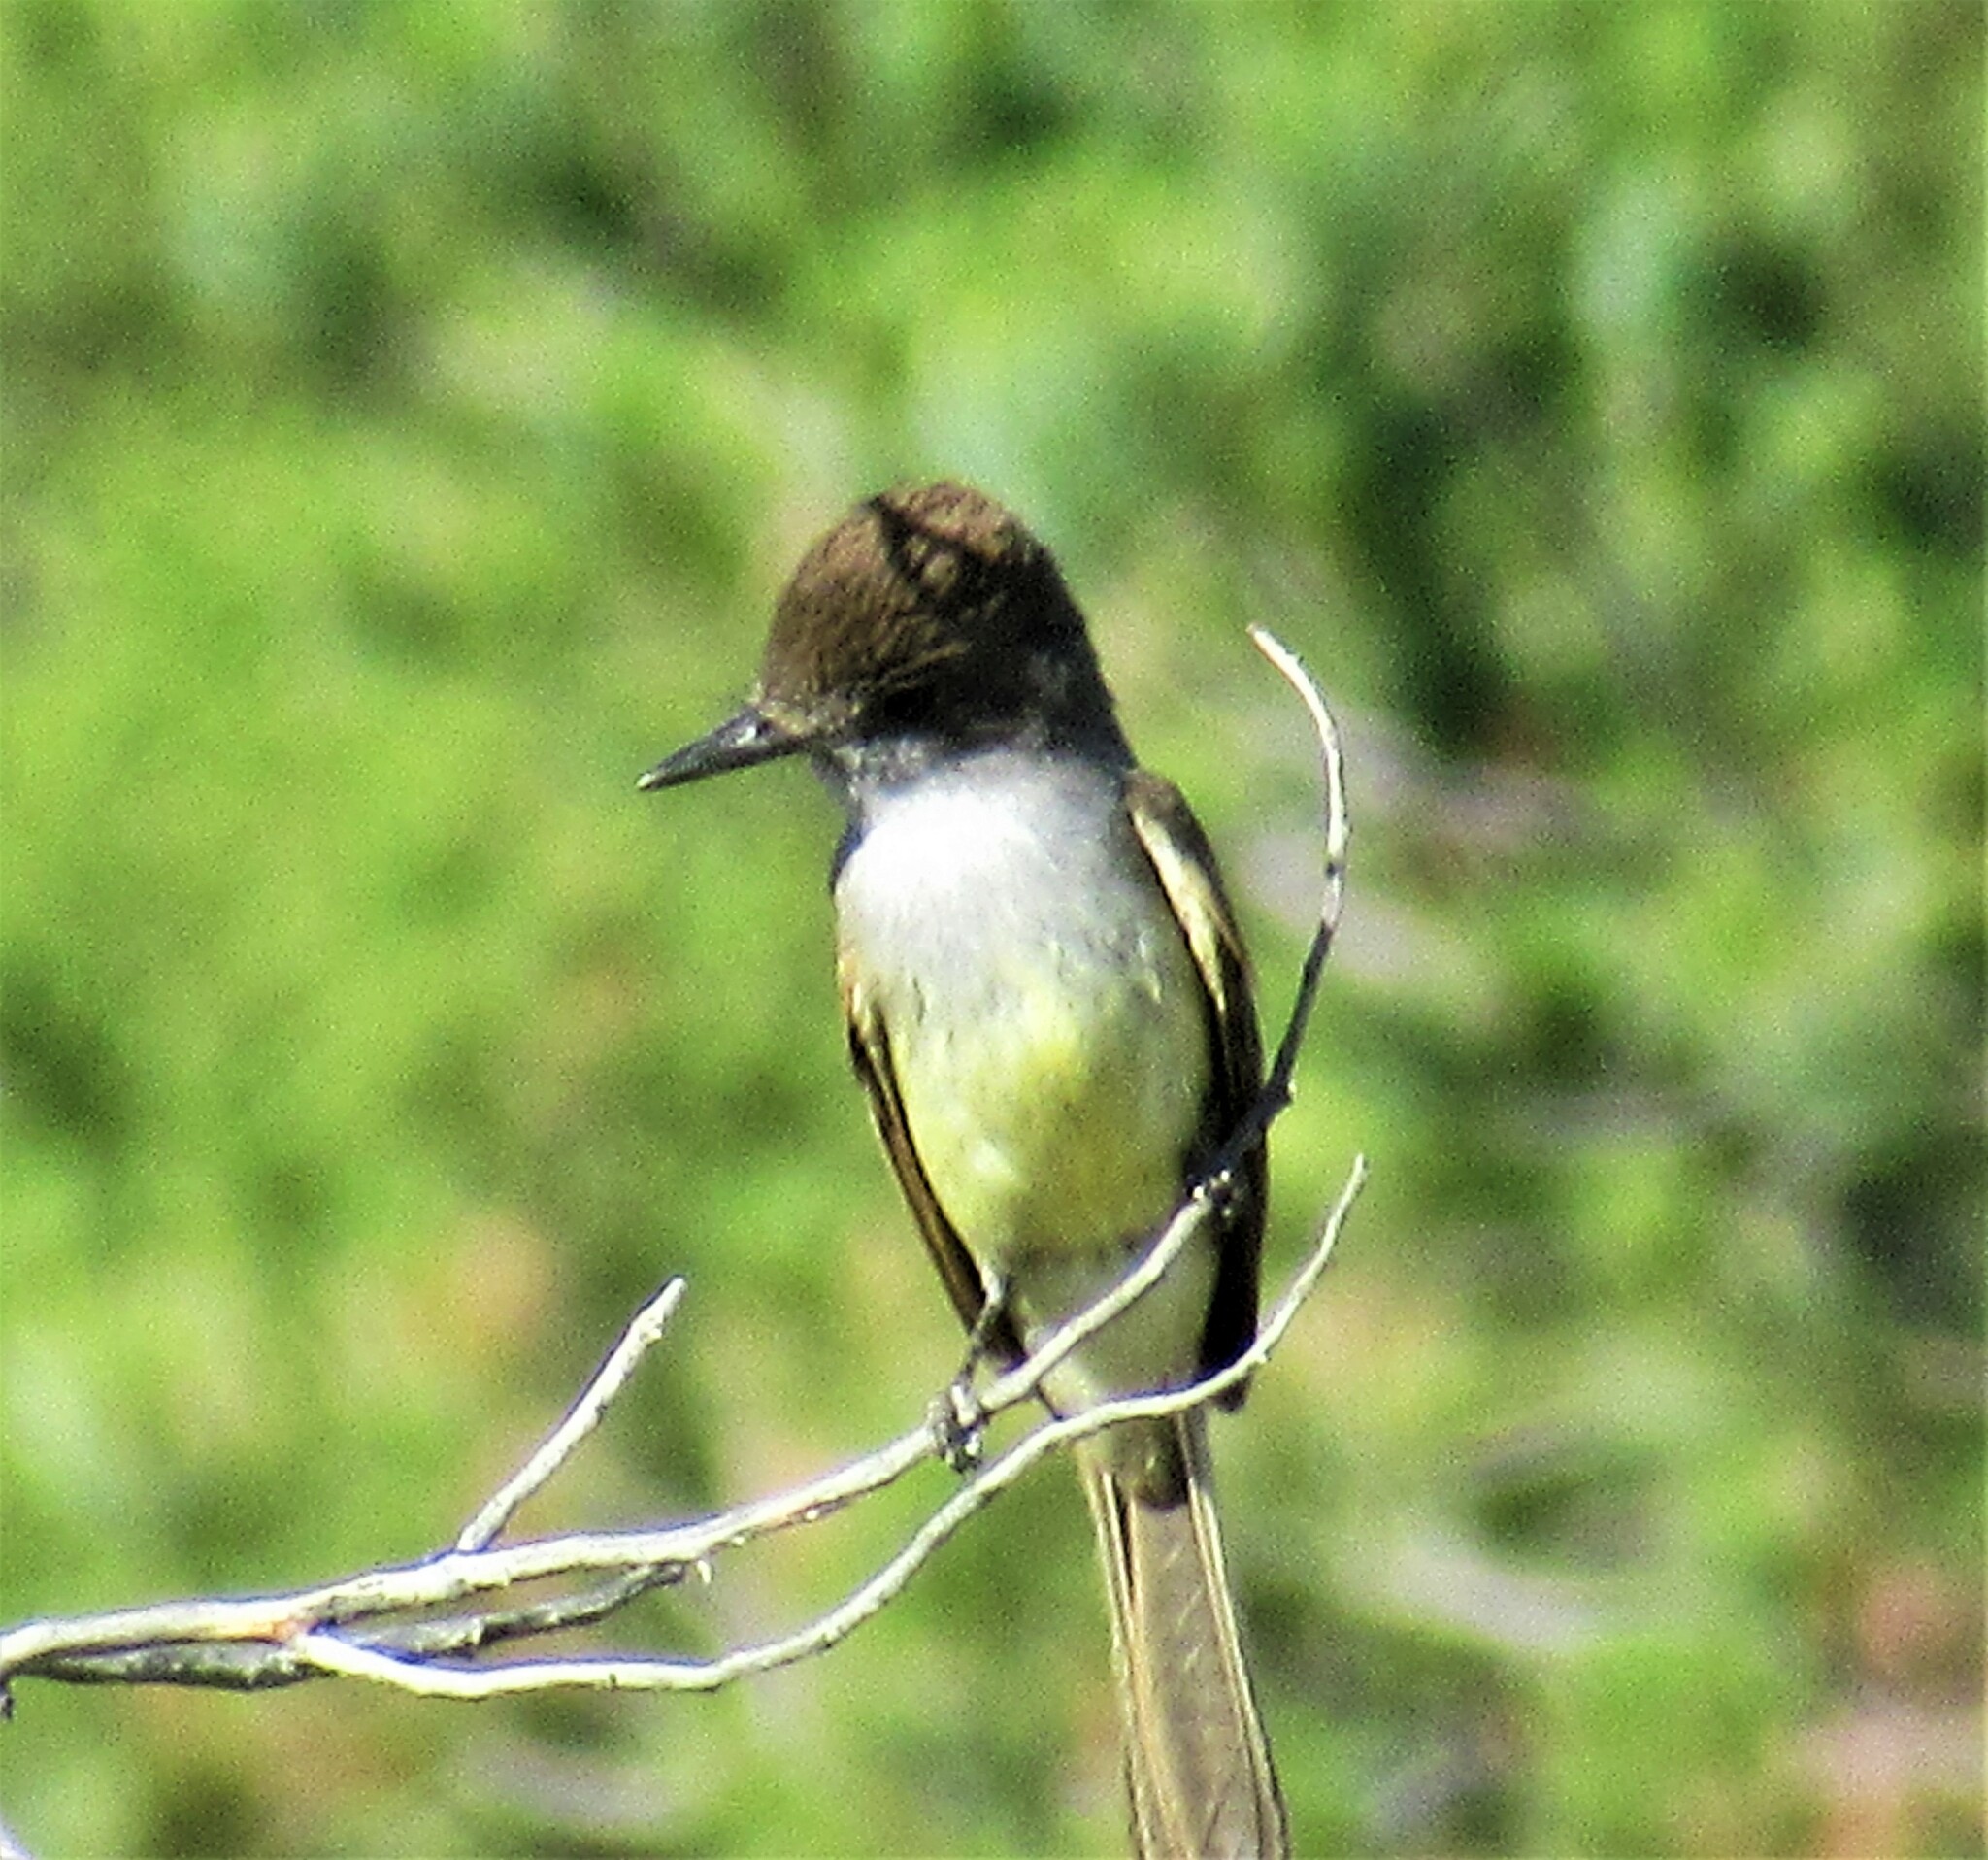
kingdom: Animalia
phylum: Chordata
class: Aves
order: Passeriformes
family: Tyrannidae
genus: Myiarchus
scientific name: Myiarchus tuberculifer
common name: Dusky-capped flycatcher
